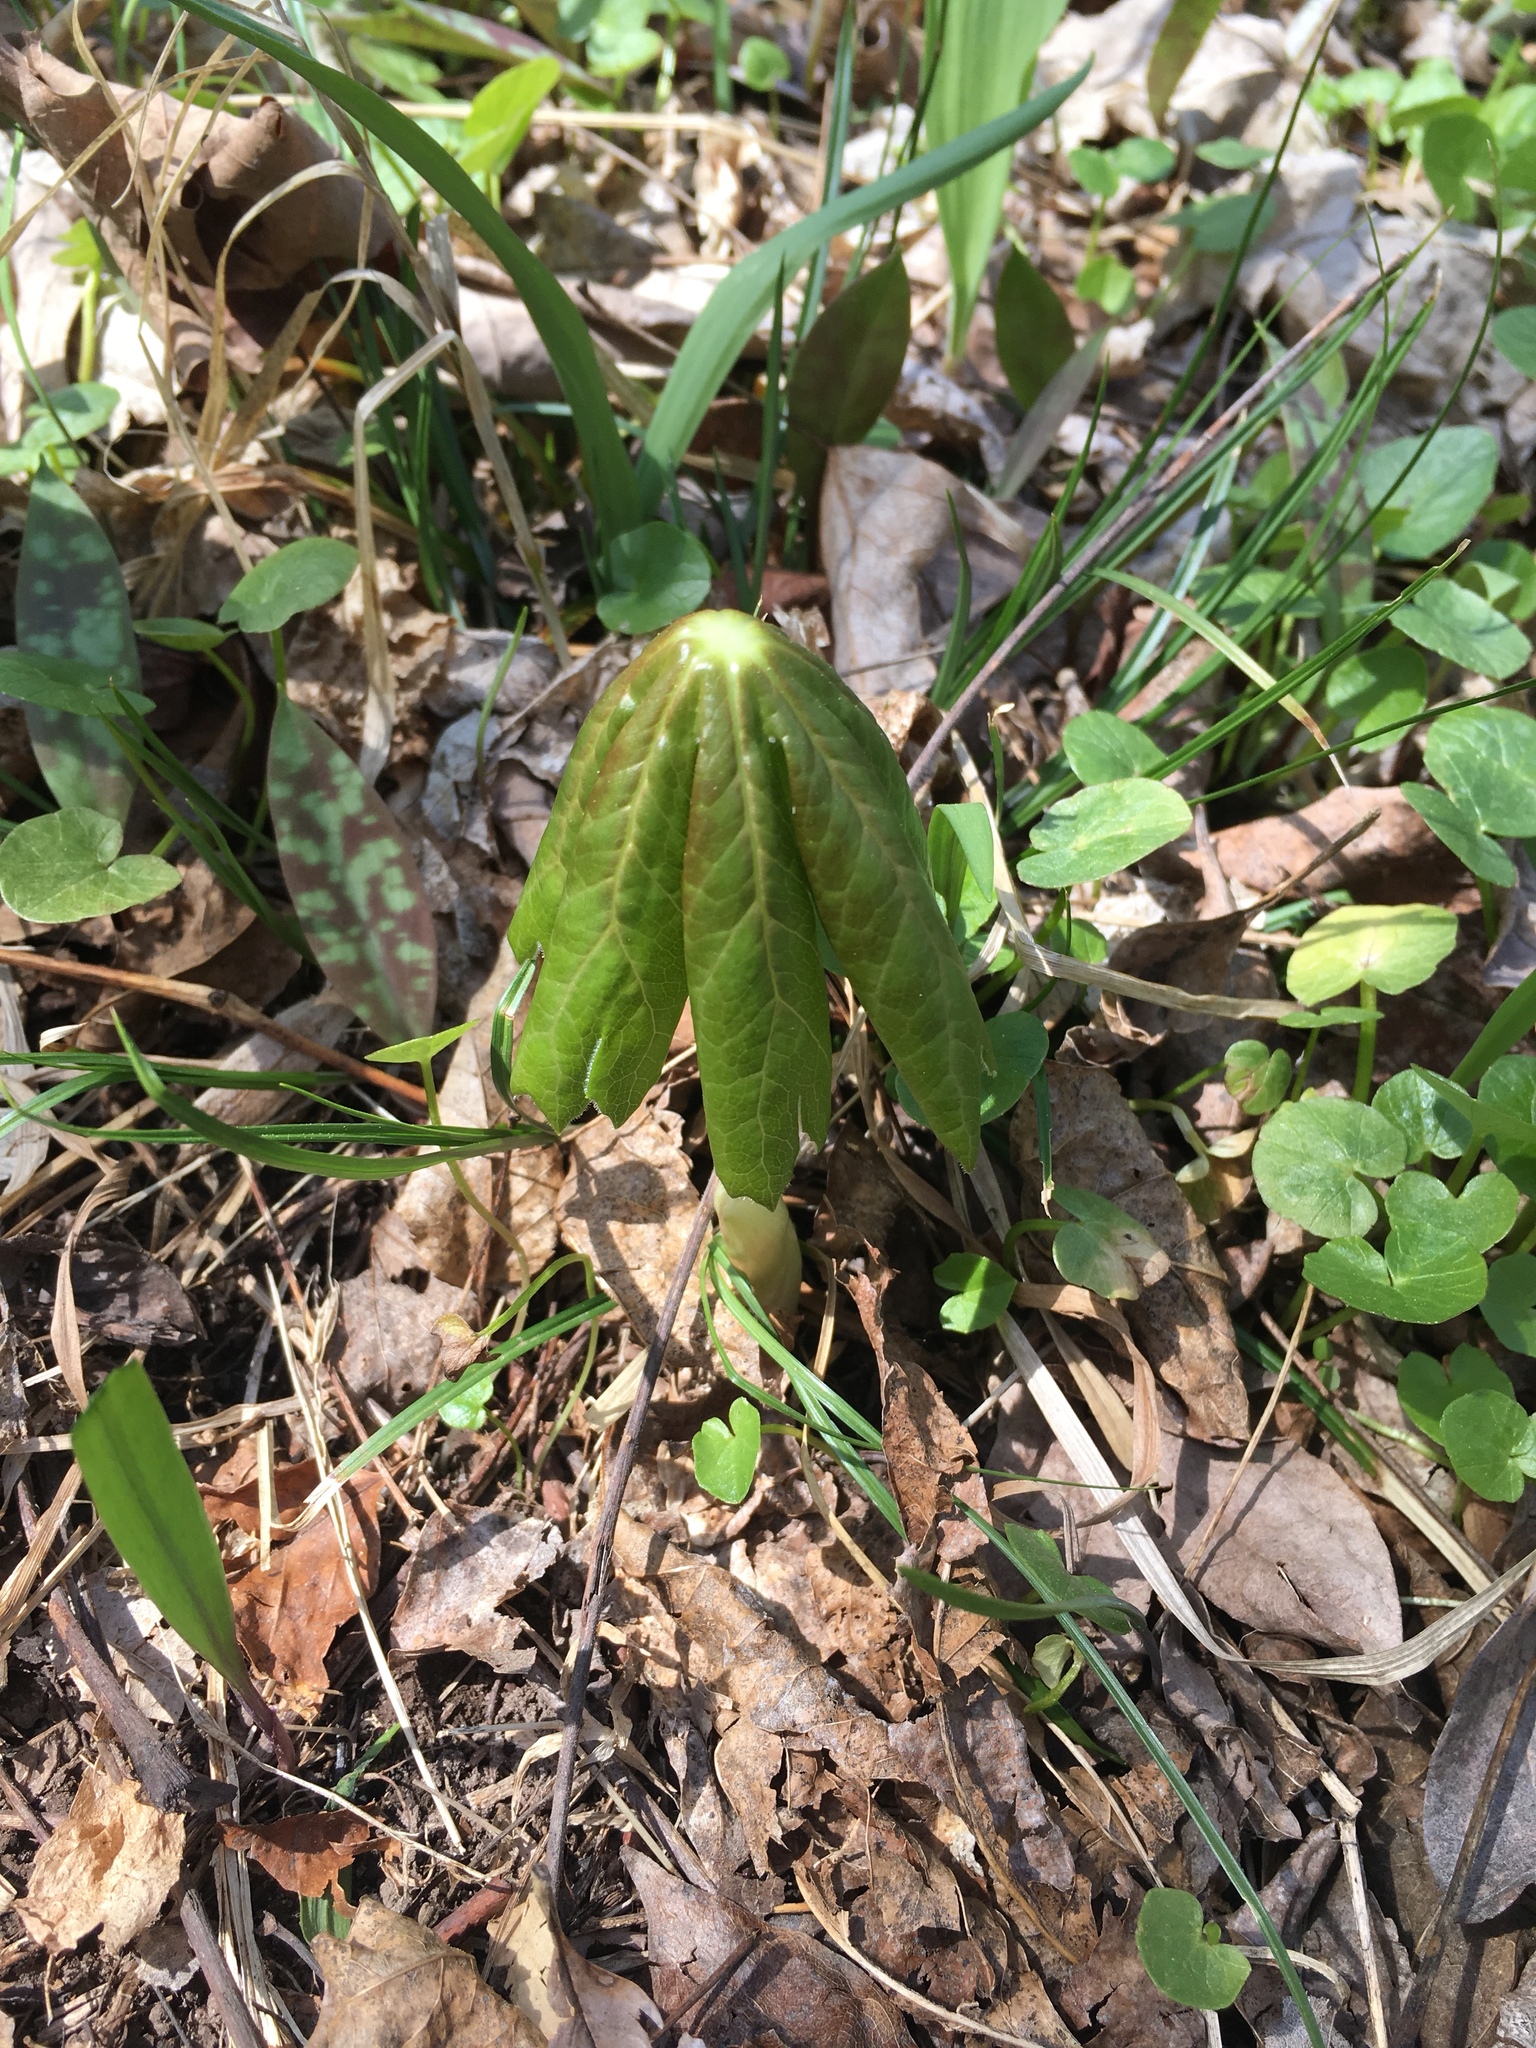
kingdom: Plantae
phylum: Tracheophyta
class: Magnoliopsida
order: Ranunculales
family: Berberidaceae
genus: Podophyllum
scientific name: Podophyllum peltatum
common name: Wild mandrake
